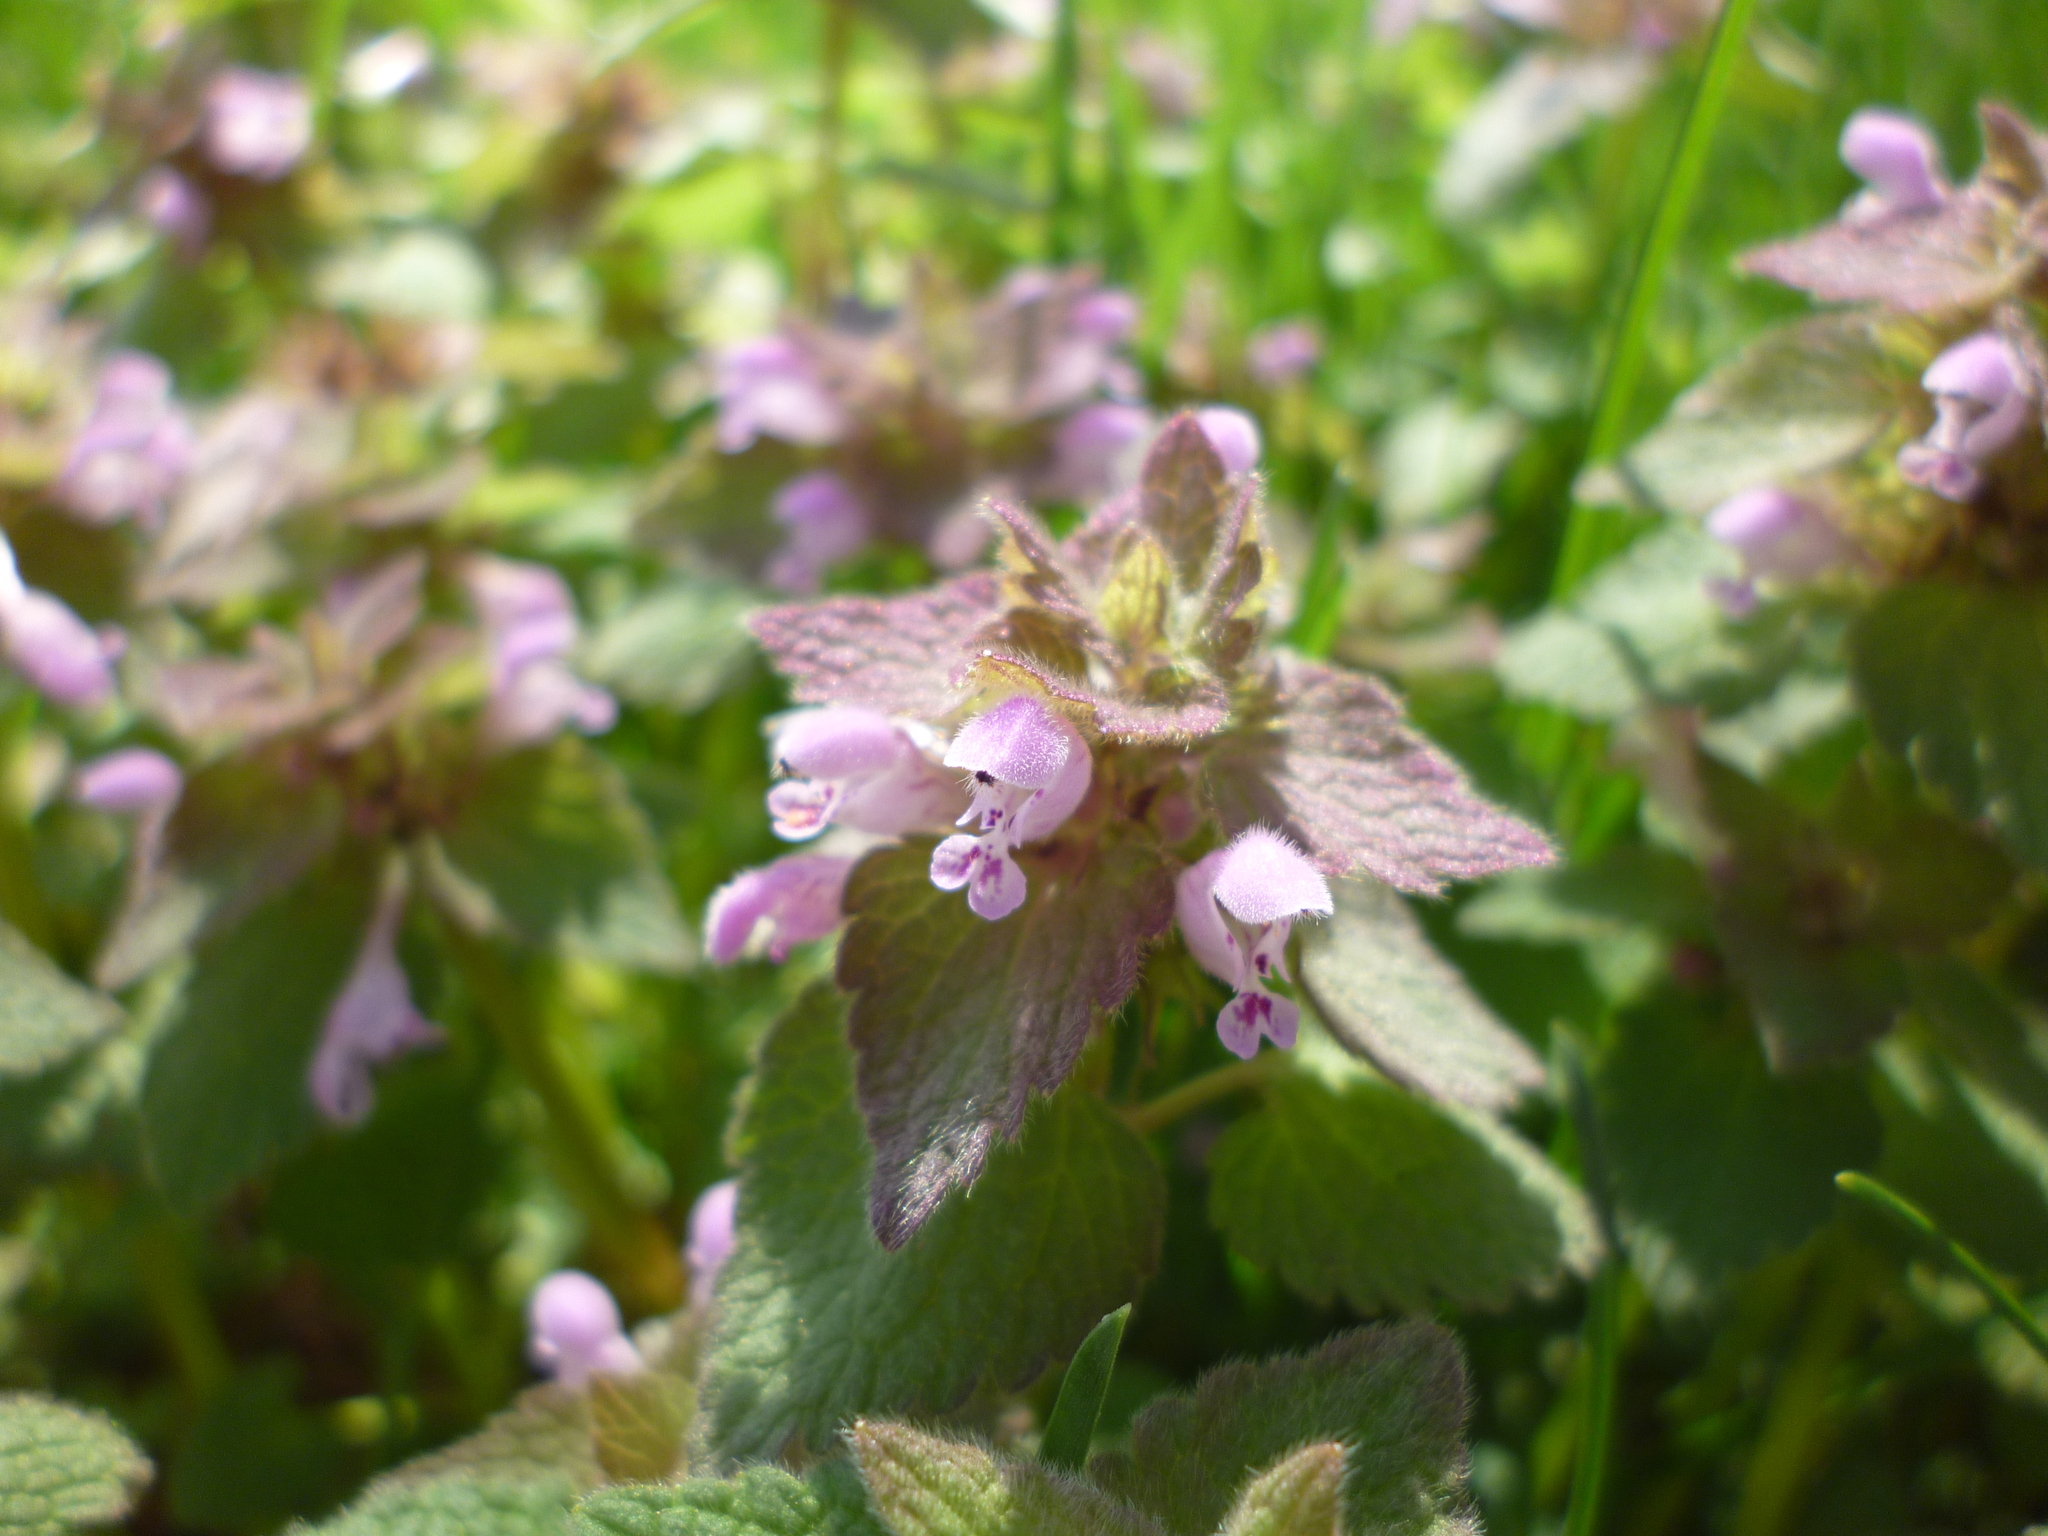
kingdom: Plantae
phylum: Tracheophyta
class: Magnoliopsida
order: Lamiales
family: Lamiaceae
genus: Lamium
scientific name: Lamium purpureum
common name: Red dead-nettle
